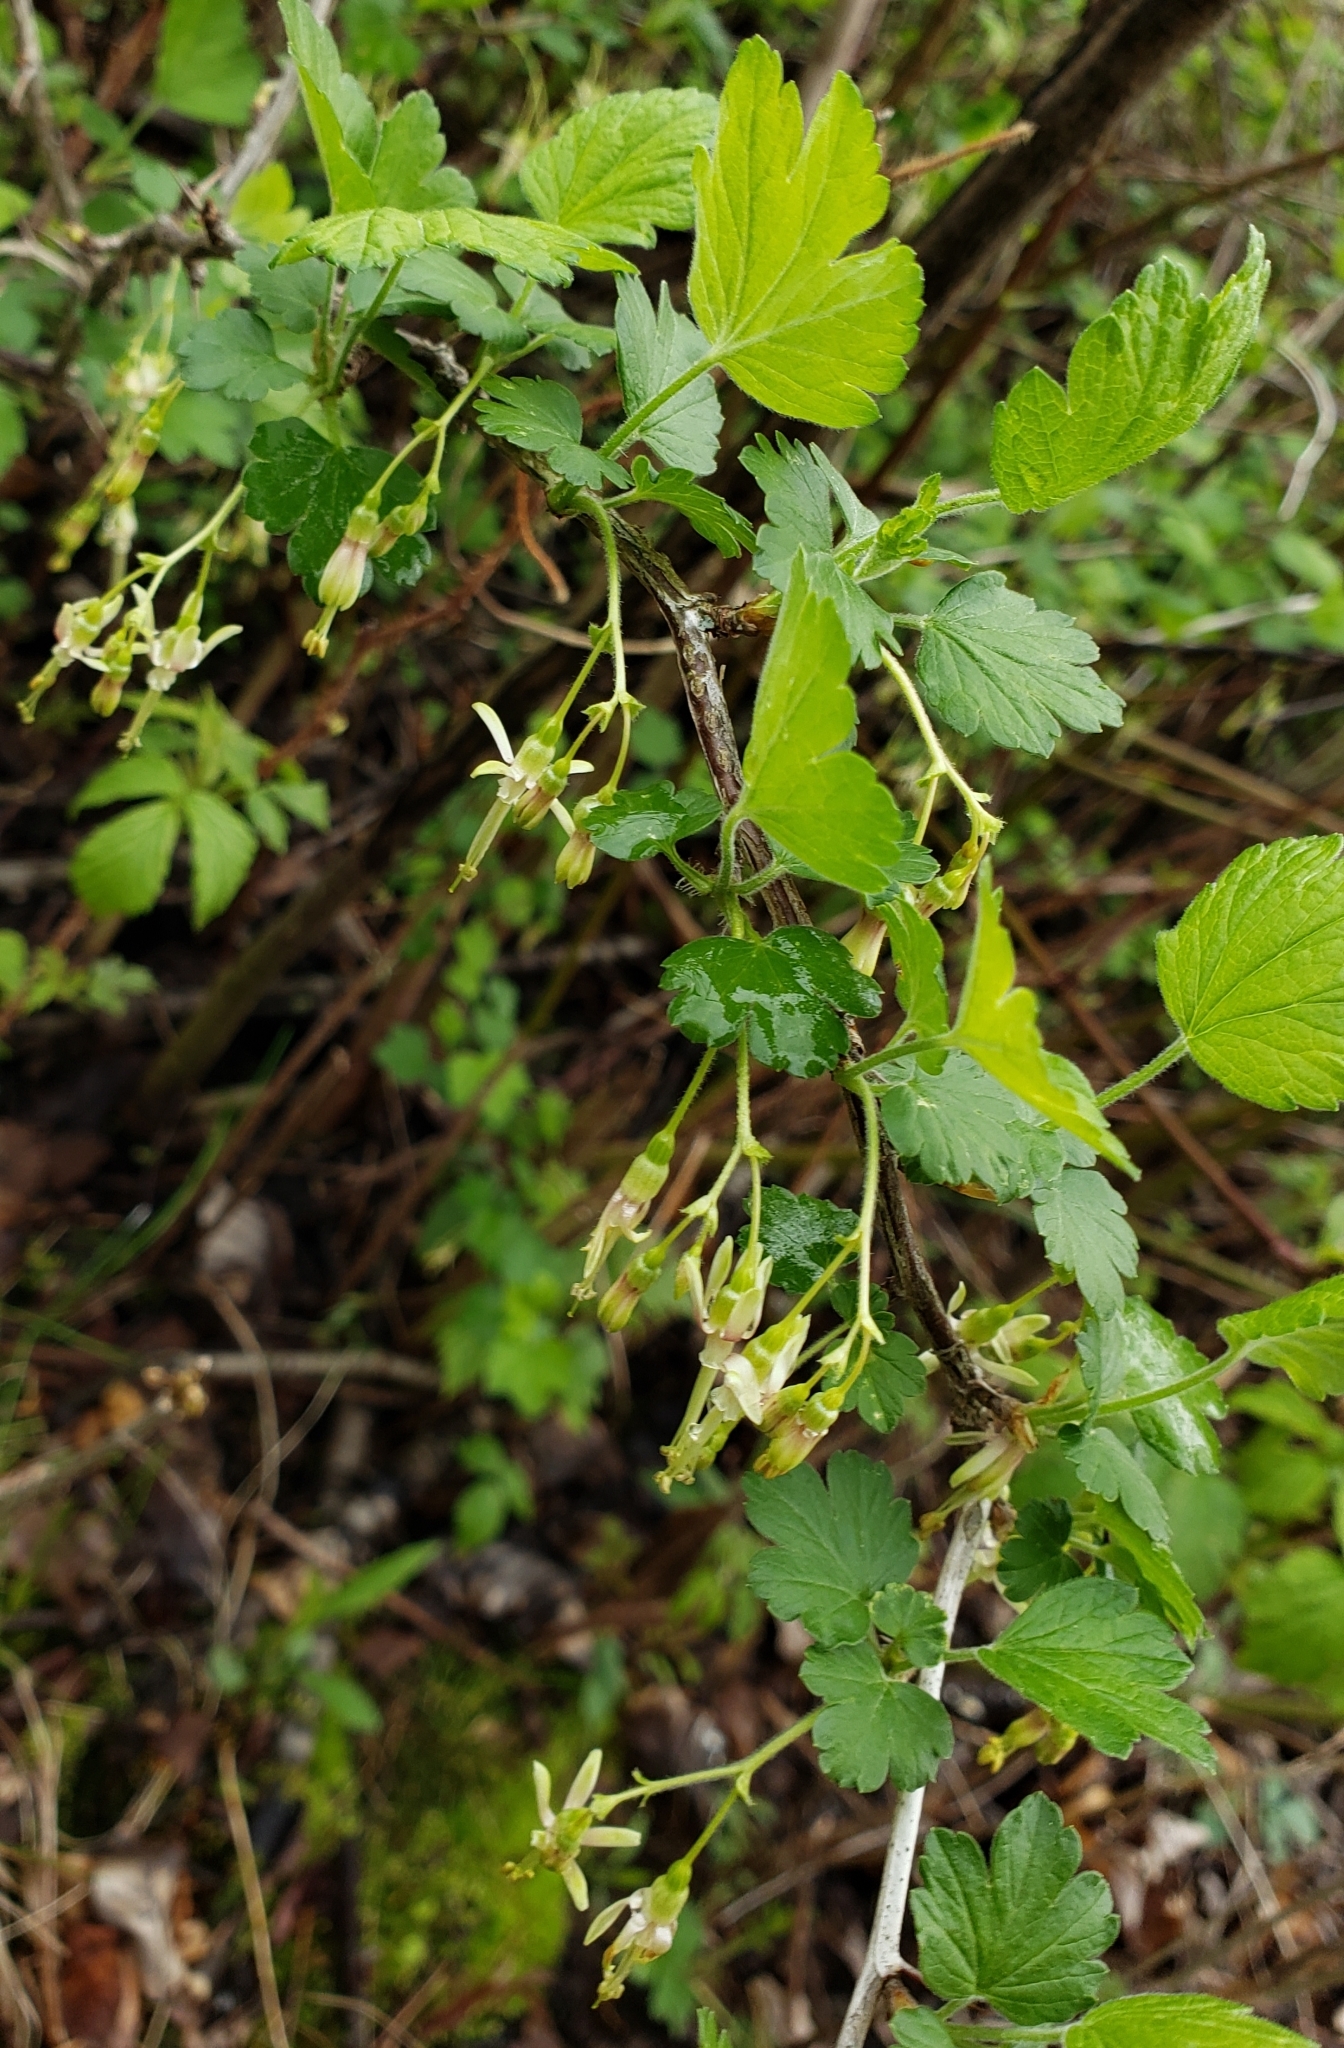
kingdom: Plantae
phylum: Tracheophyta
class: Magnoliopsida
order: Saxifragales
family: Grossulariaceae
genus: Ribes
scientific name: Ribes missouriense
